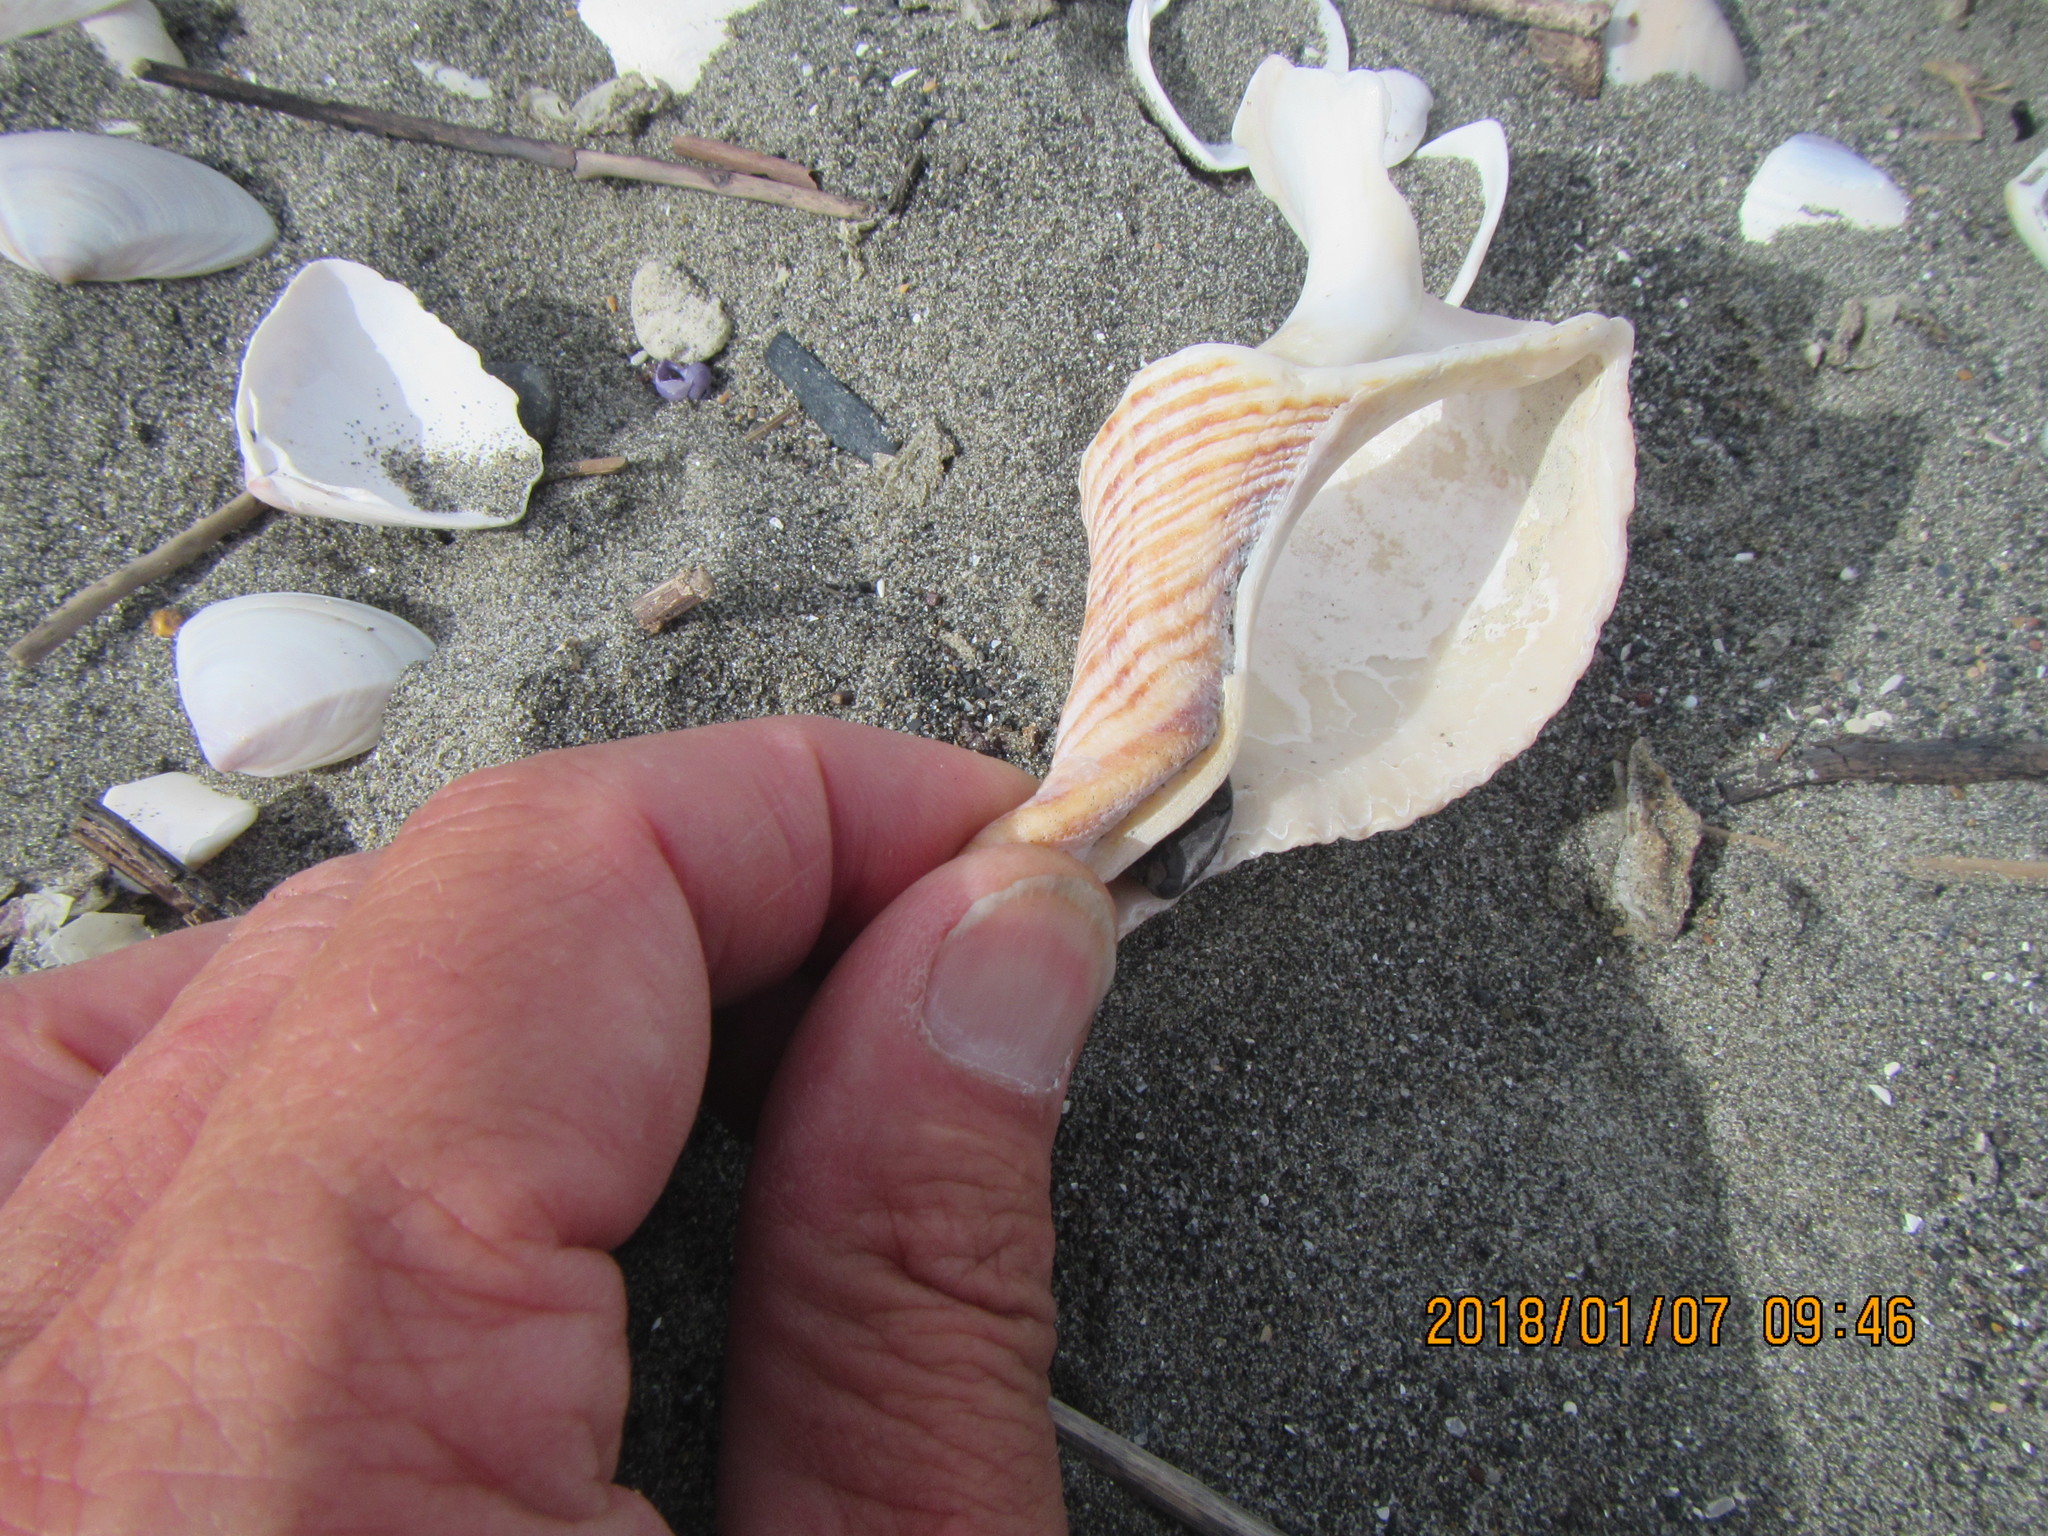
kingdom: Animalia
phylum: Mollusca
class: Gastropoda
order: Neogastropoda
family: Austrosiphonidae
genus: Penion
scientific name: Penion sulcatus
